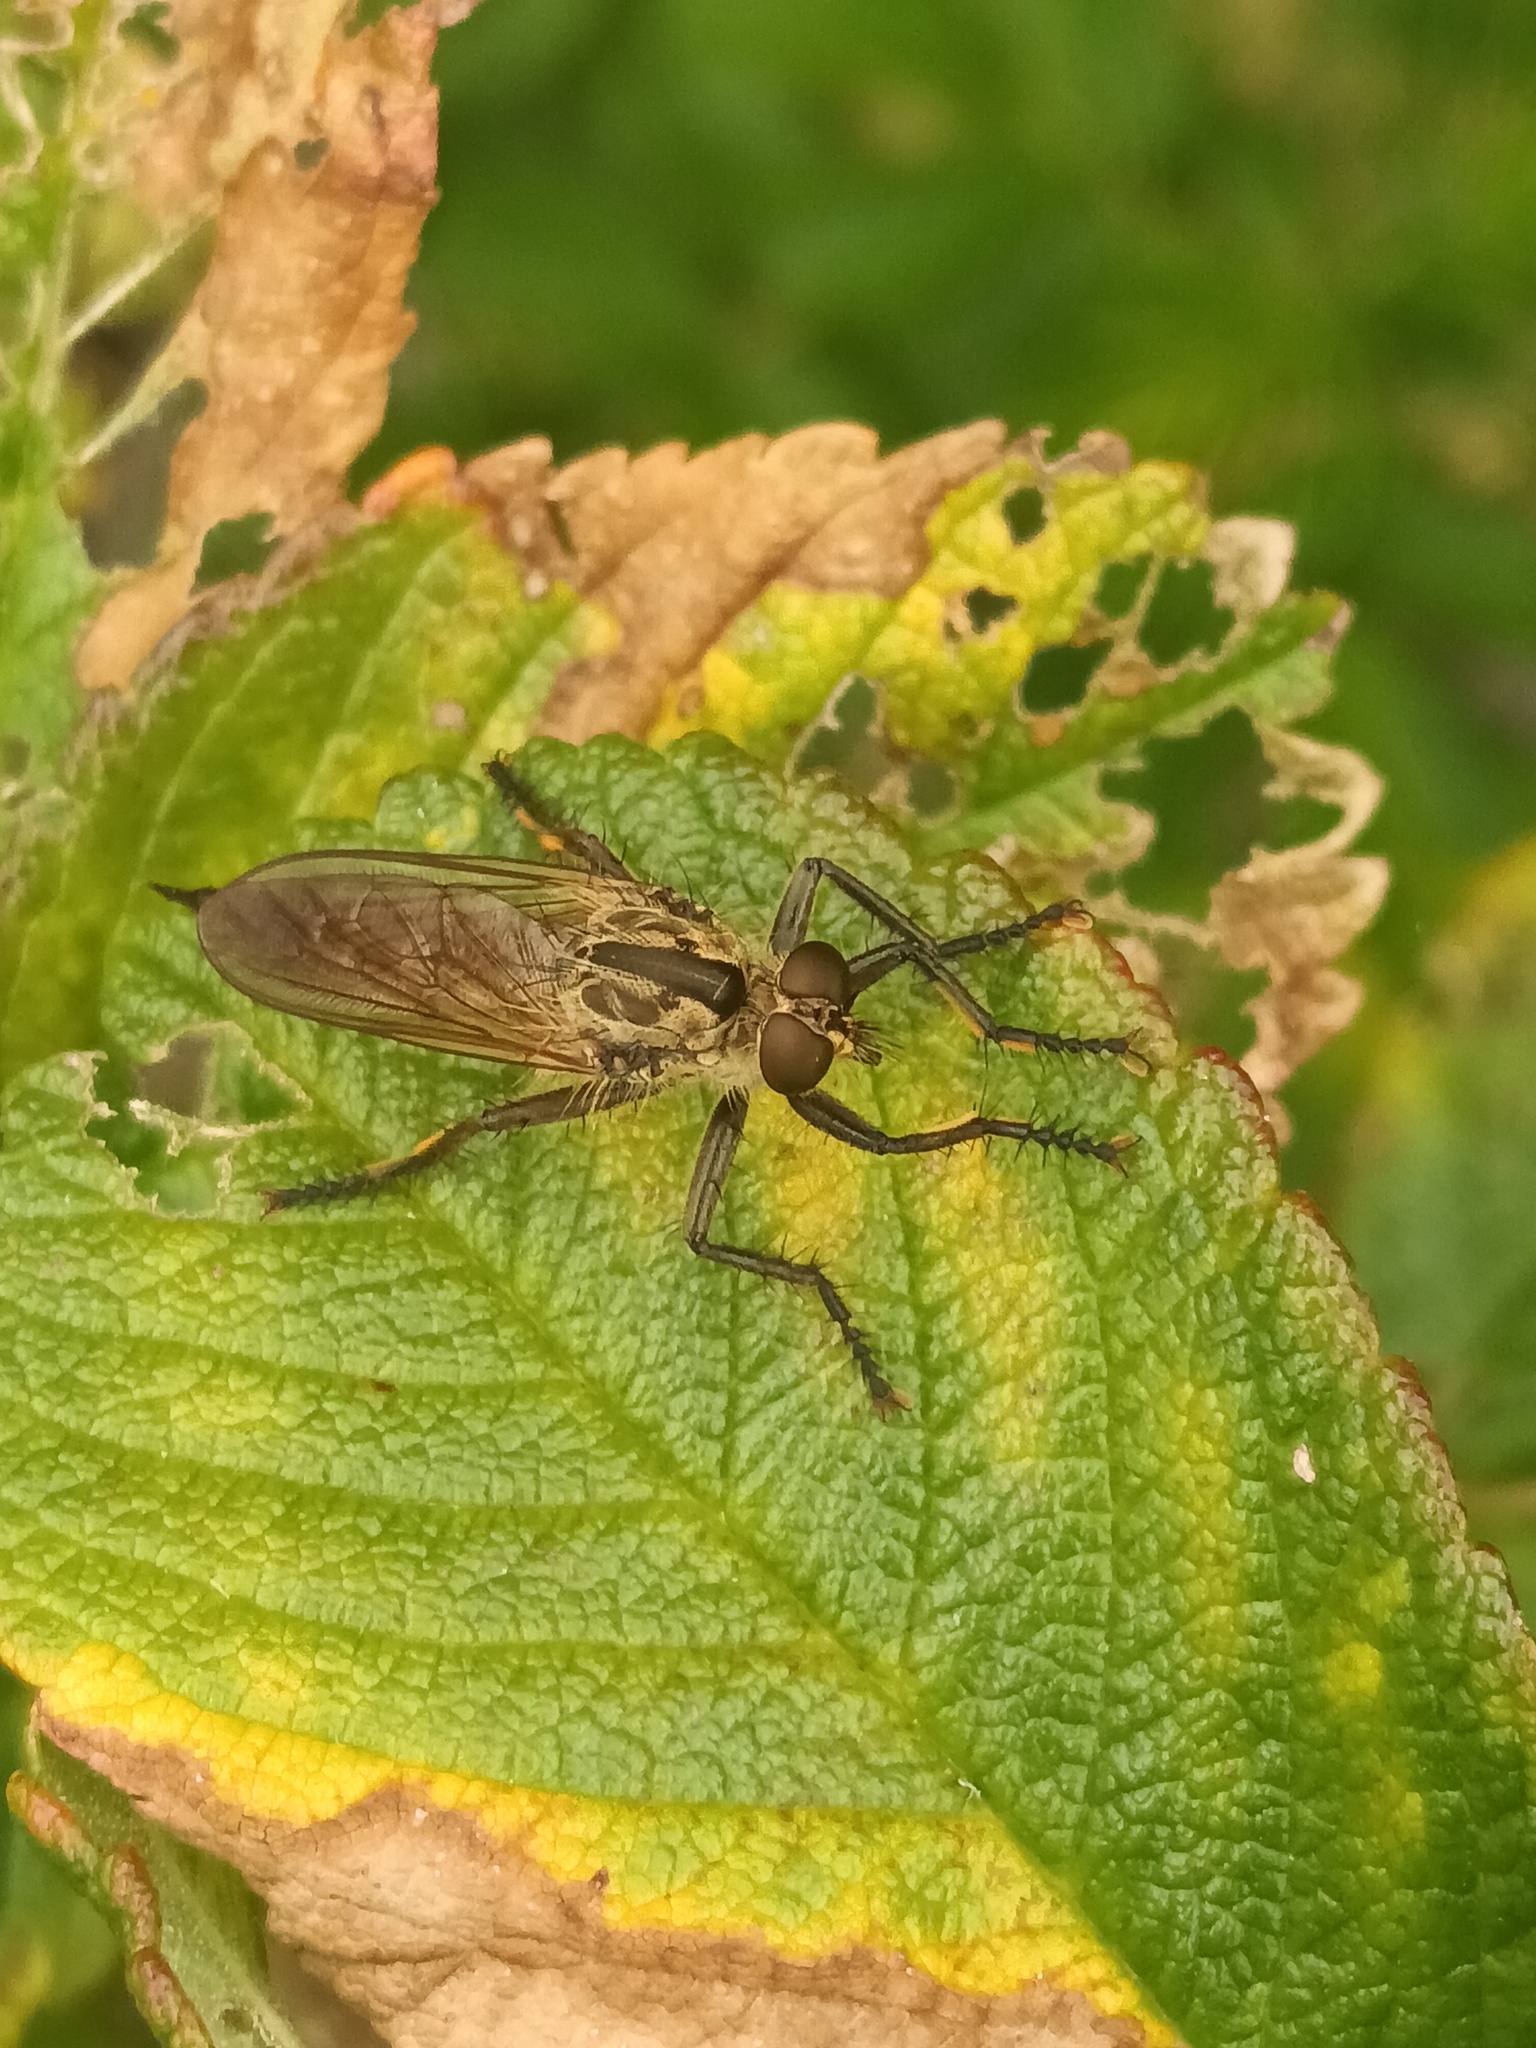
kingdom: Animalia
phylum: Arthropoda
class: Insecta
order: Diptera
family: Asilidae
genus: Eutolmus
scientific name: Eutolmus rufibarbis
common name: Golden-tabbed robberfly
